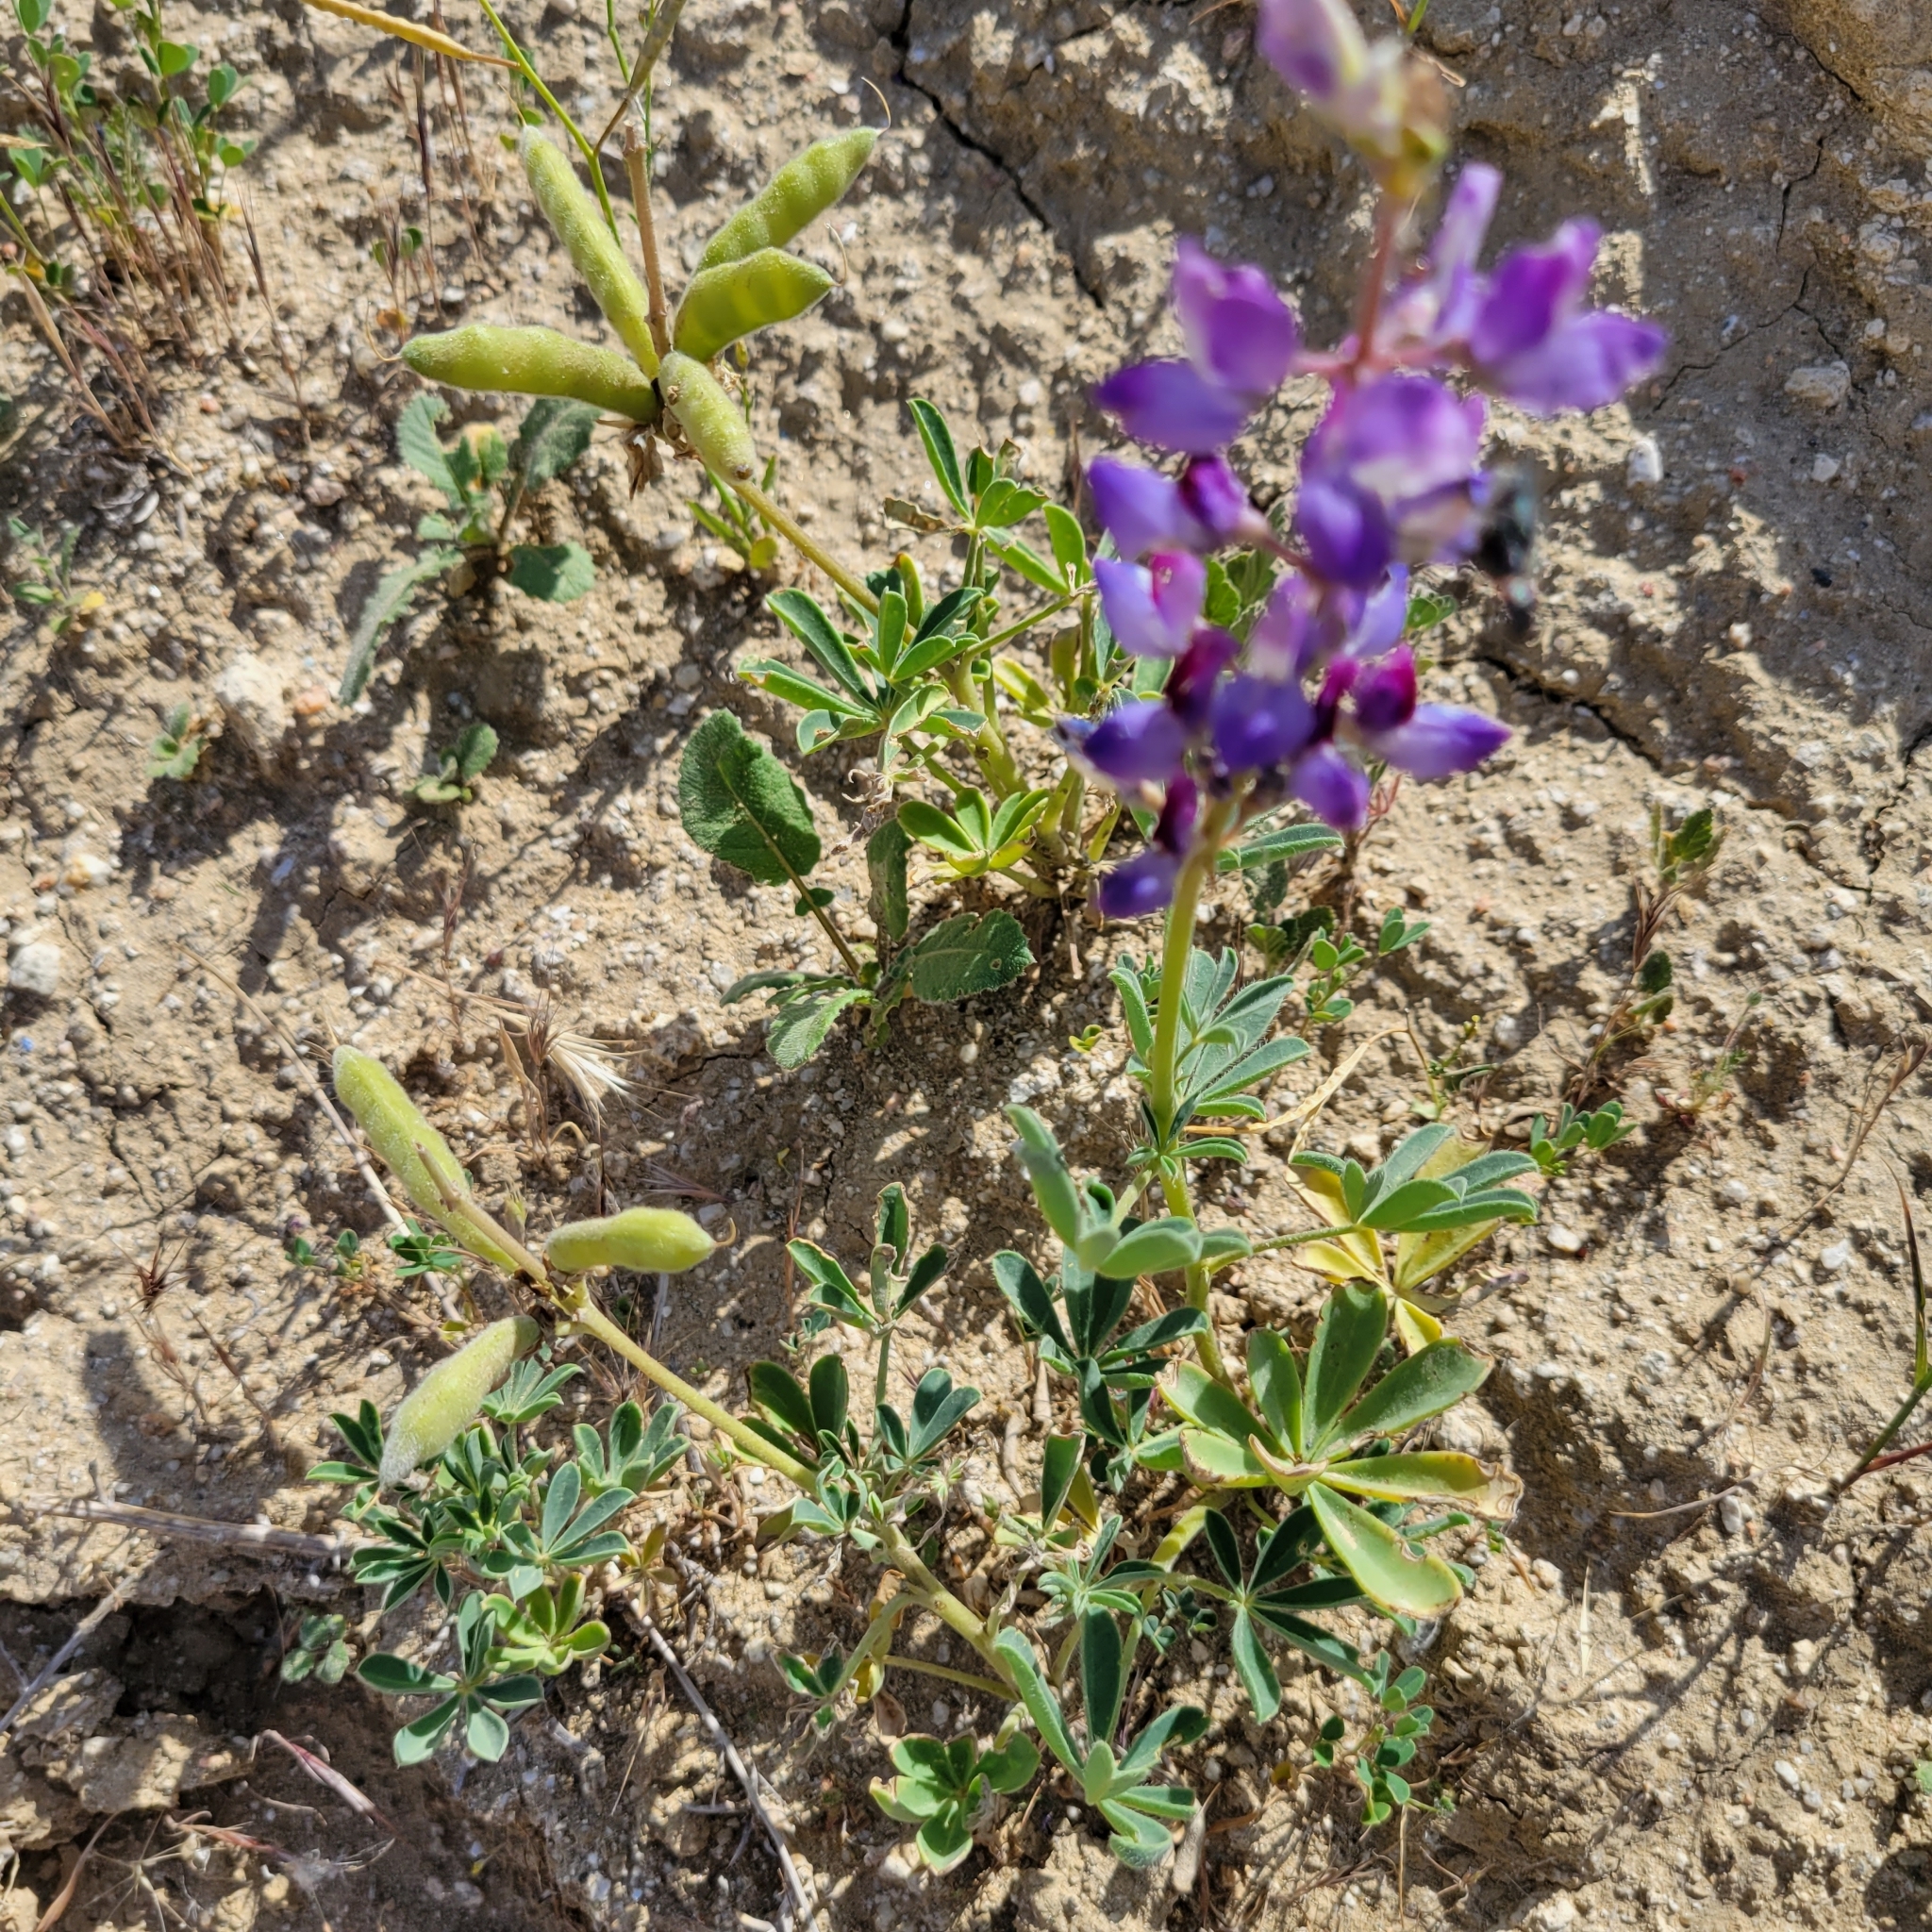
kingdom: Plantae
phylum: Tracheophyta
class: Magnoliopsida
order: Fabales
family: Fabaceae
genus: Lupinus
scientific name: Lupinus succulentus
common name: Arroyo lupine
